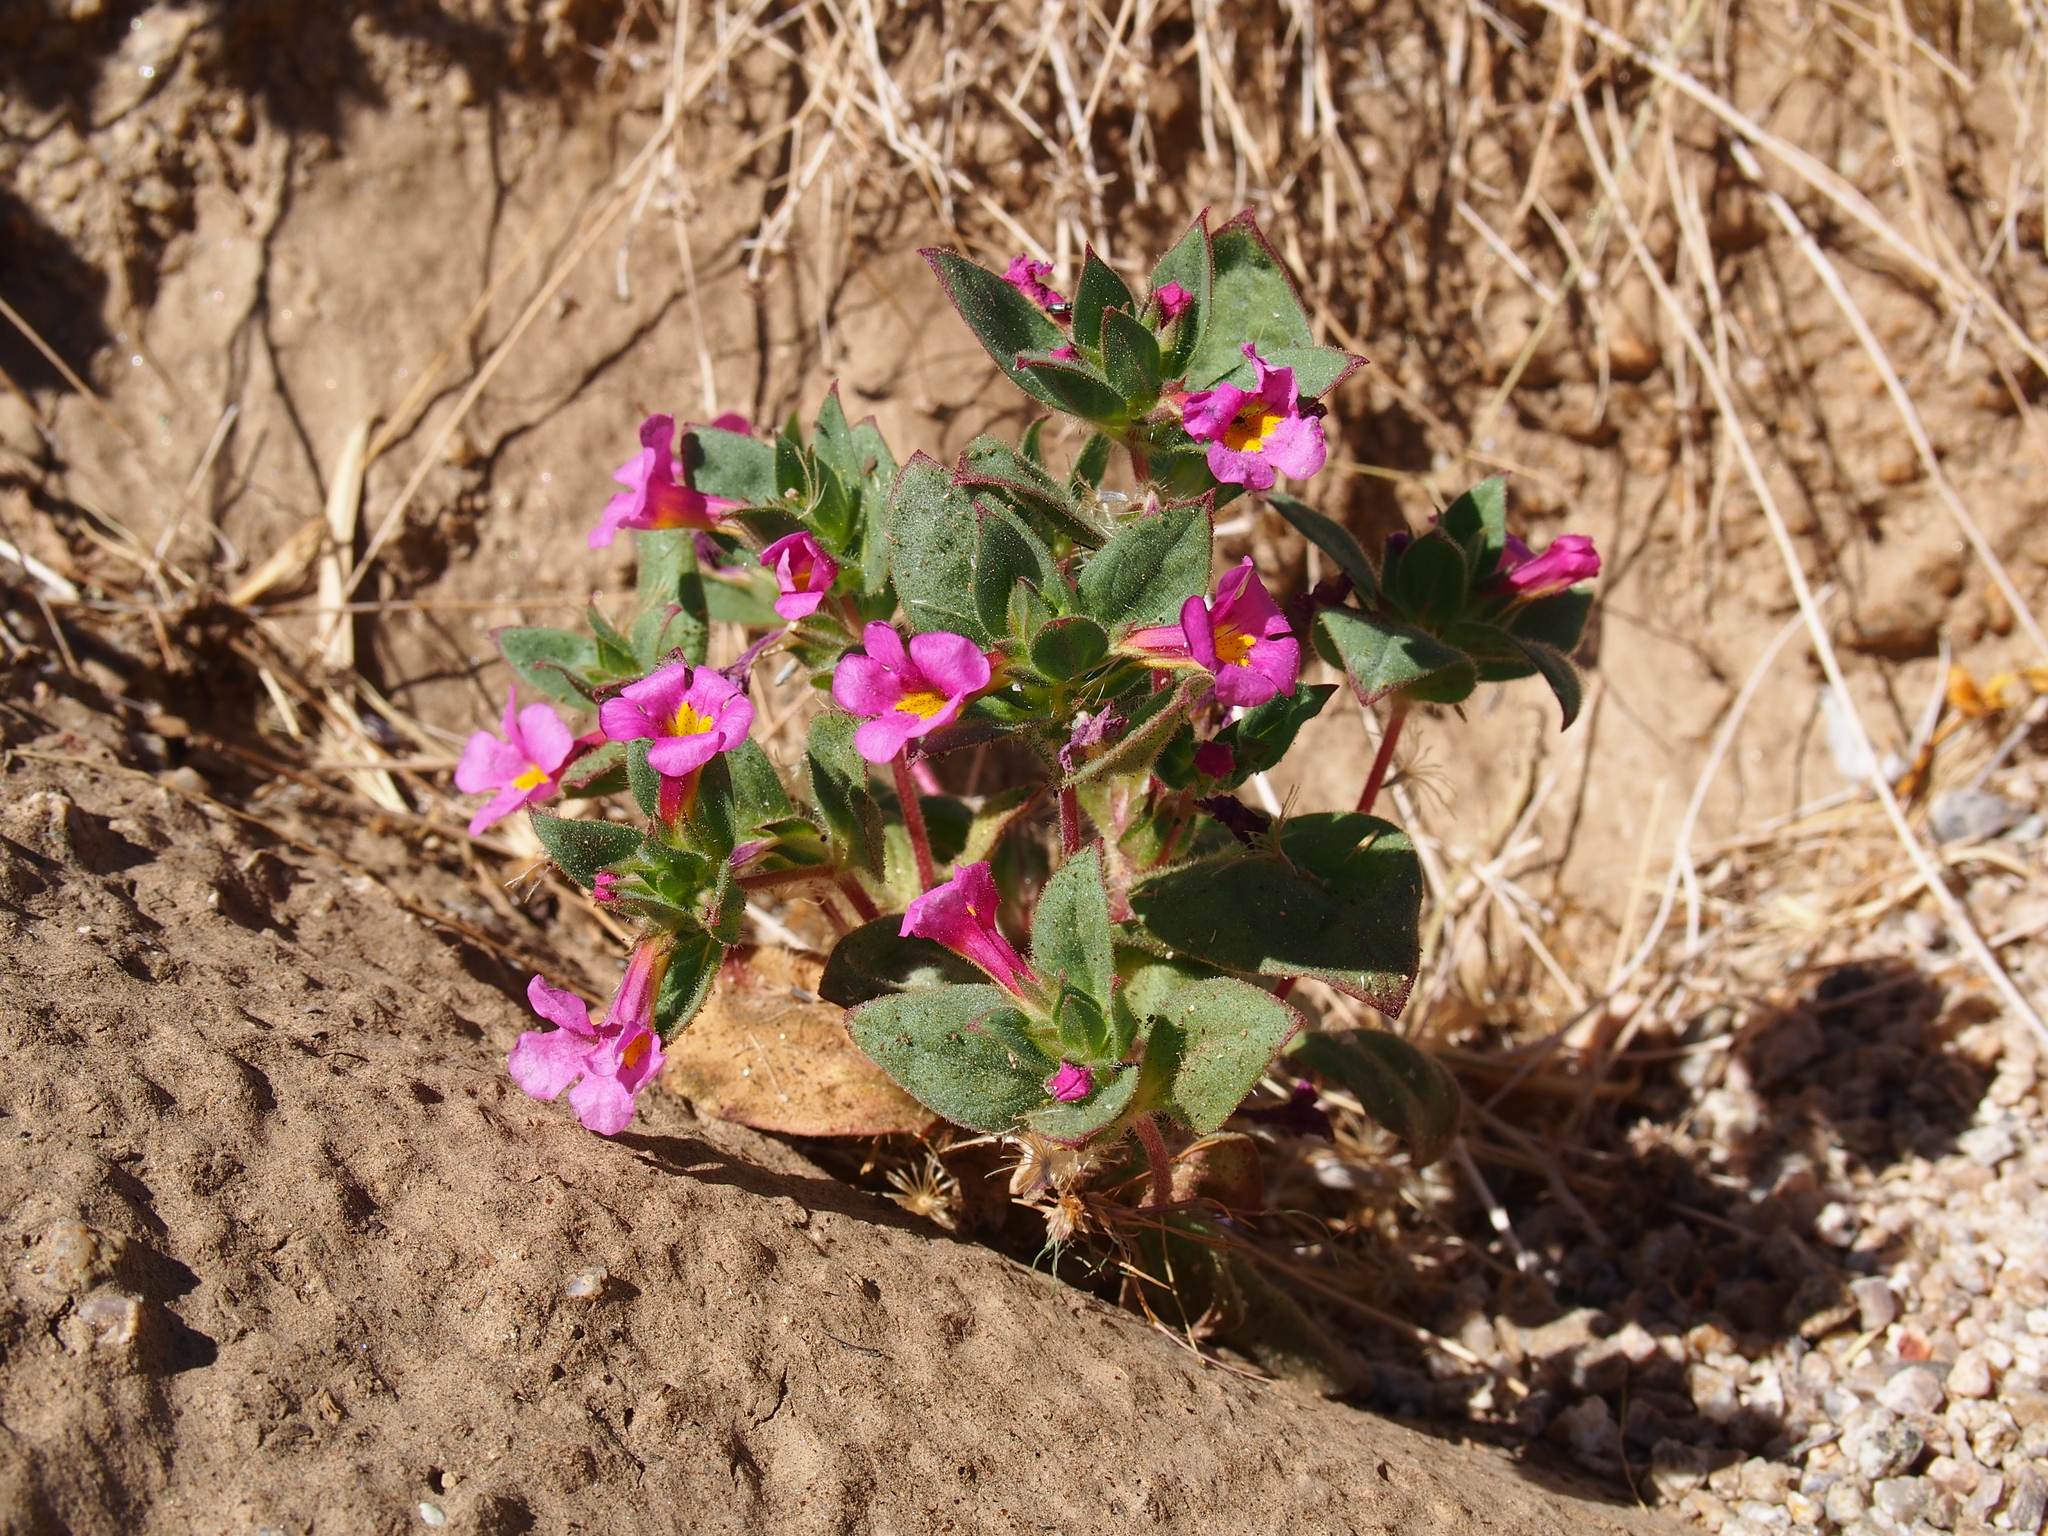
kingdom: Plantae
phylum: Tracheophyta
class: Magnoliopsida
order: Lamiales
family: Phrymaceae
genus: Diplacus
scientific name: Diplacus bigelovii
